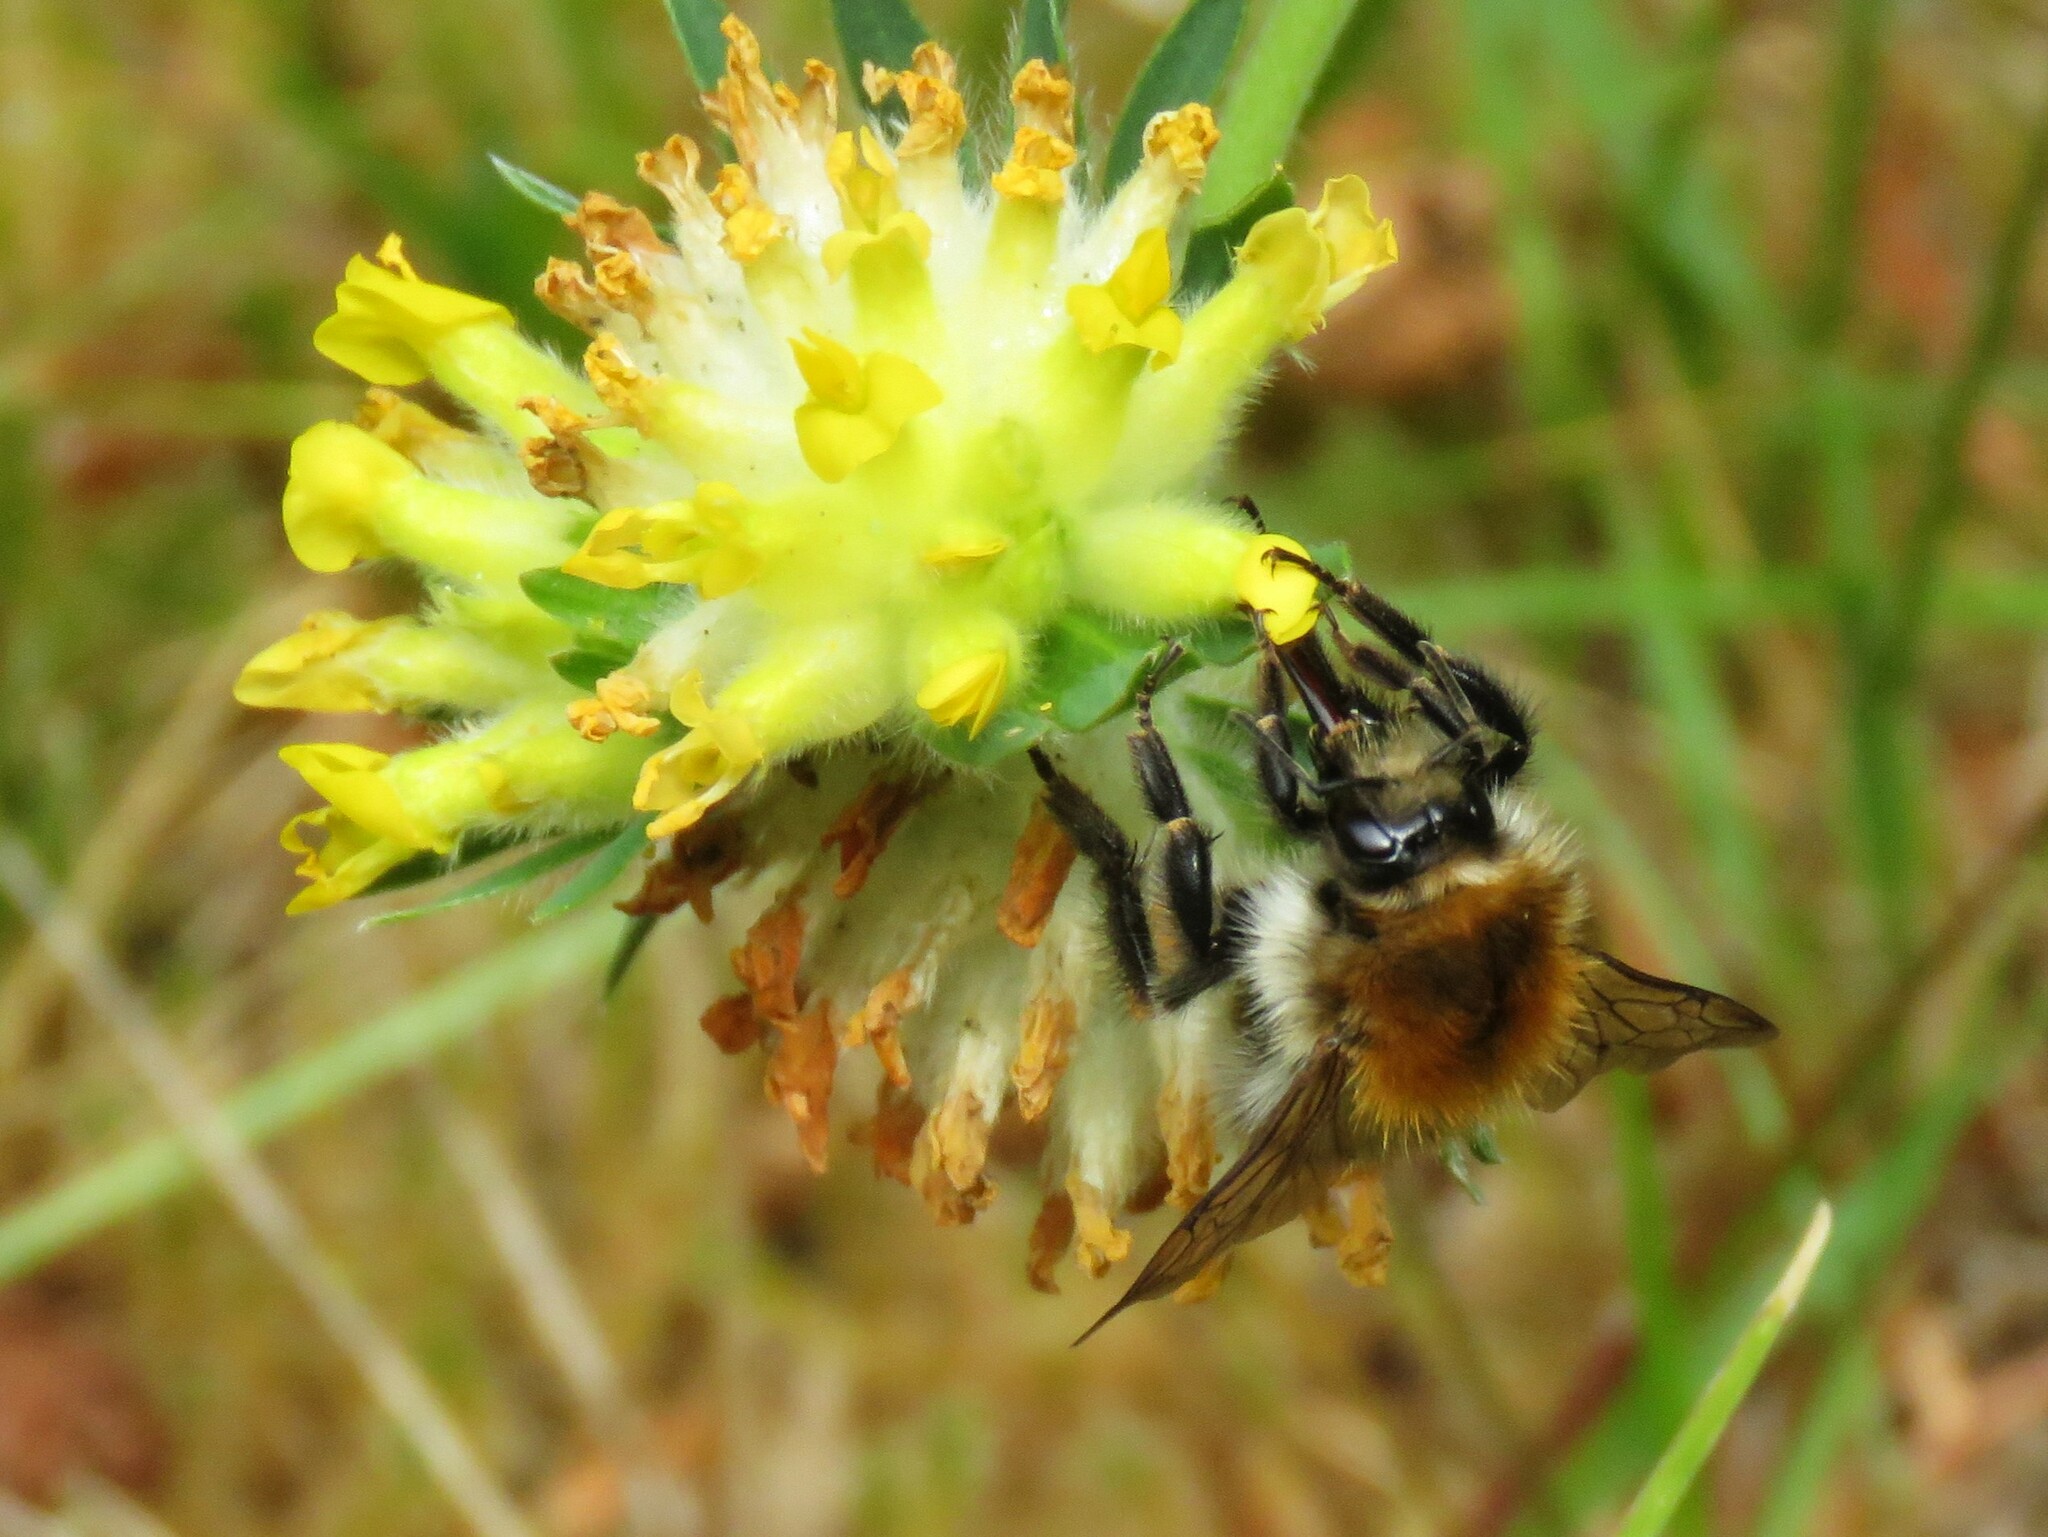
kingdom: Animalia
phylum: Arthropoda
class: Insecta
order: Hymenoptera
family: Apidae
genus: Bombus
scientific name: Bombus pascuorum
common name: Common carder bee
